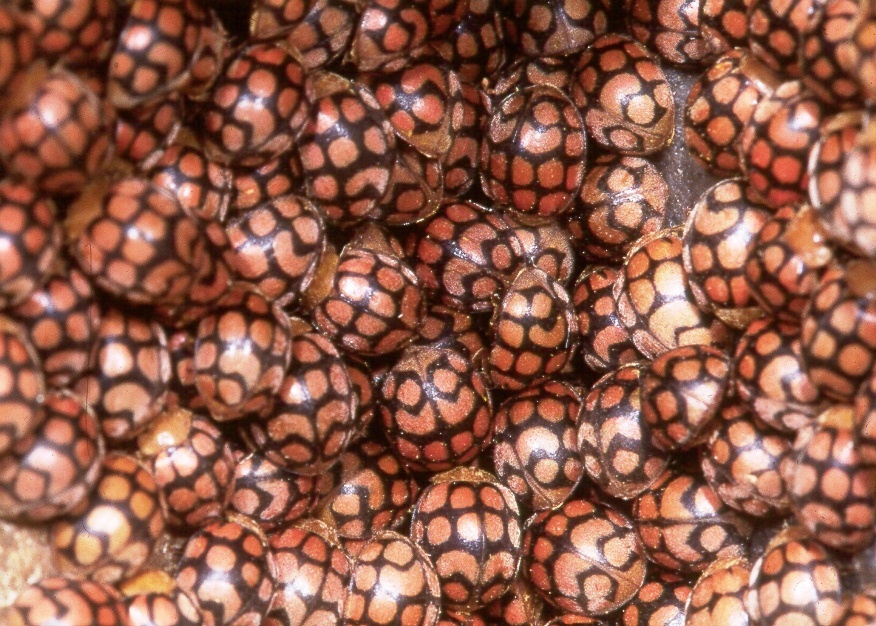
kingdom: Animalia
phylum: Arthropoda
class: Insecta
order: Coleoptera
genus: Solanophila
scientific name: Solanophila
